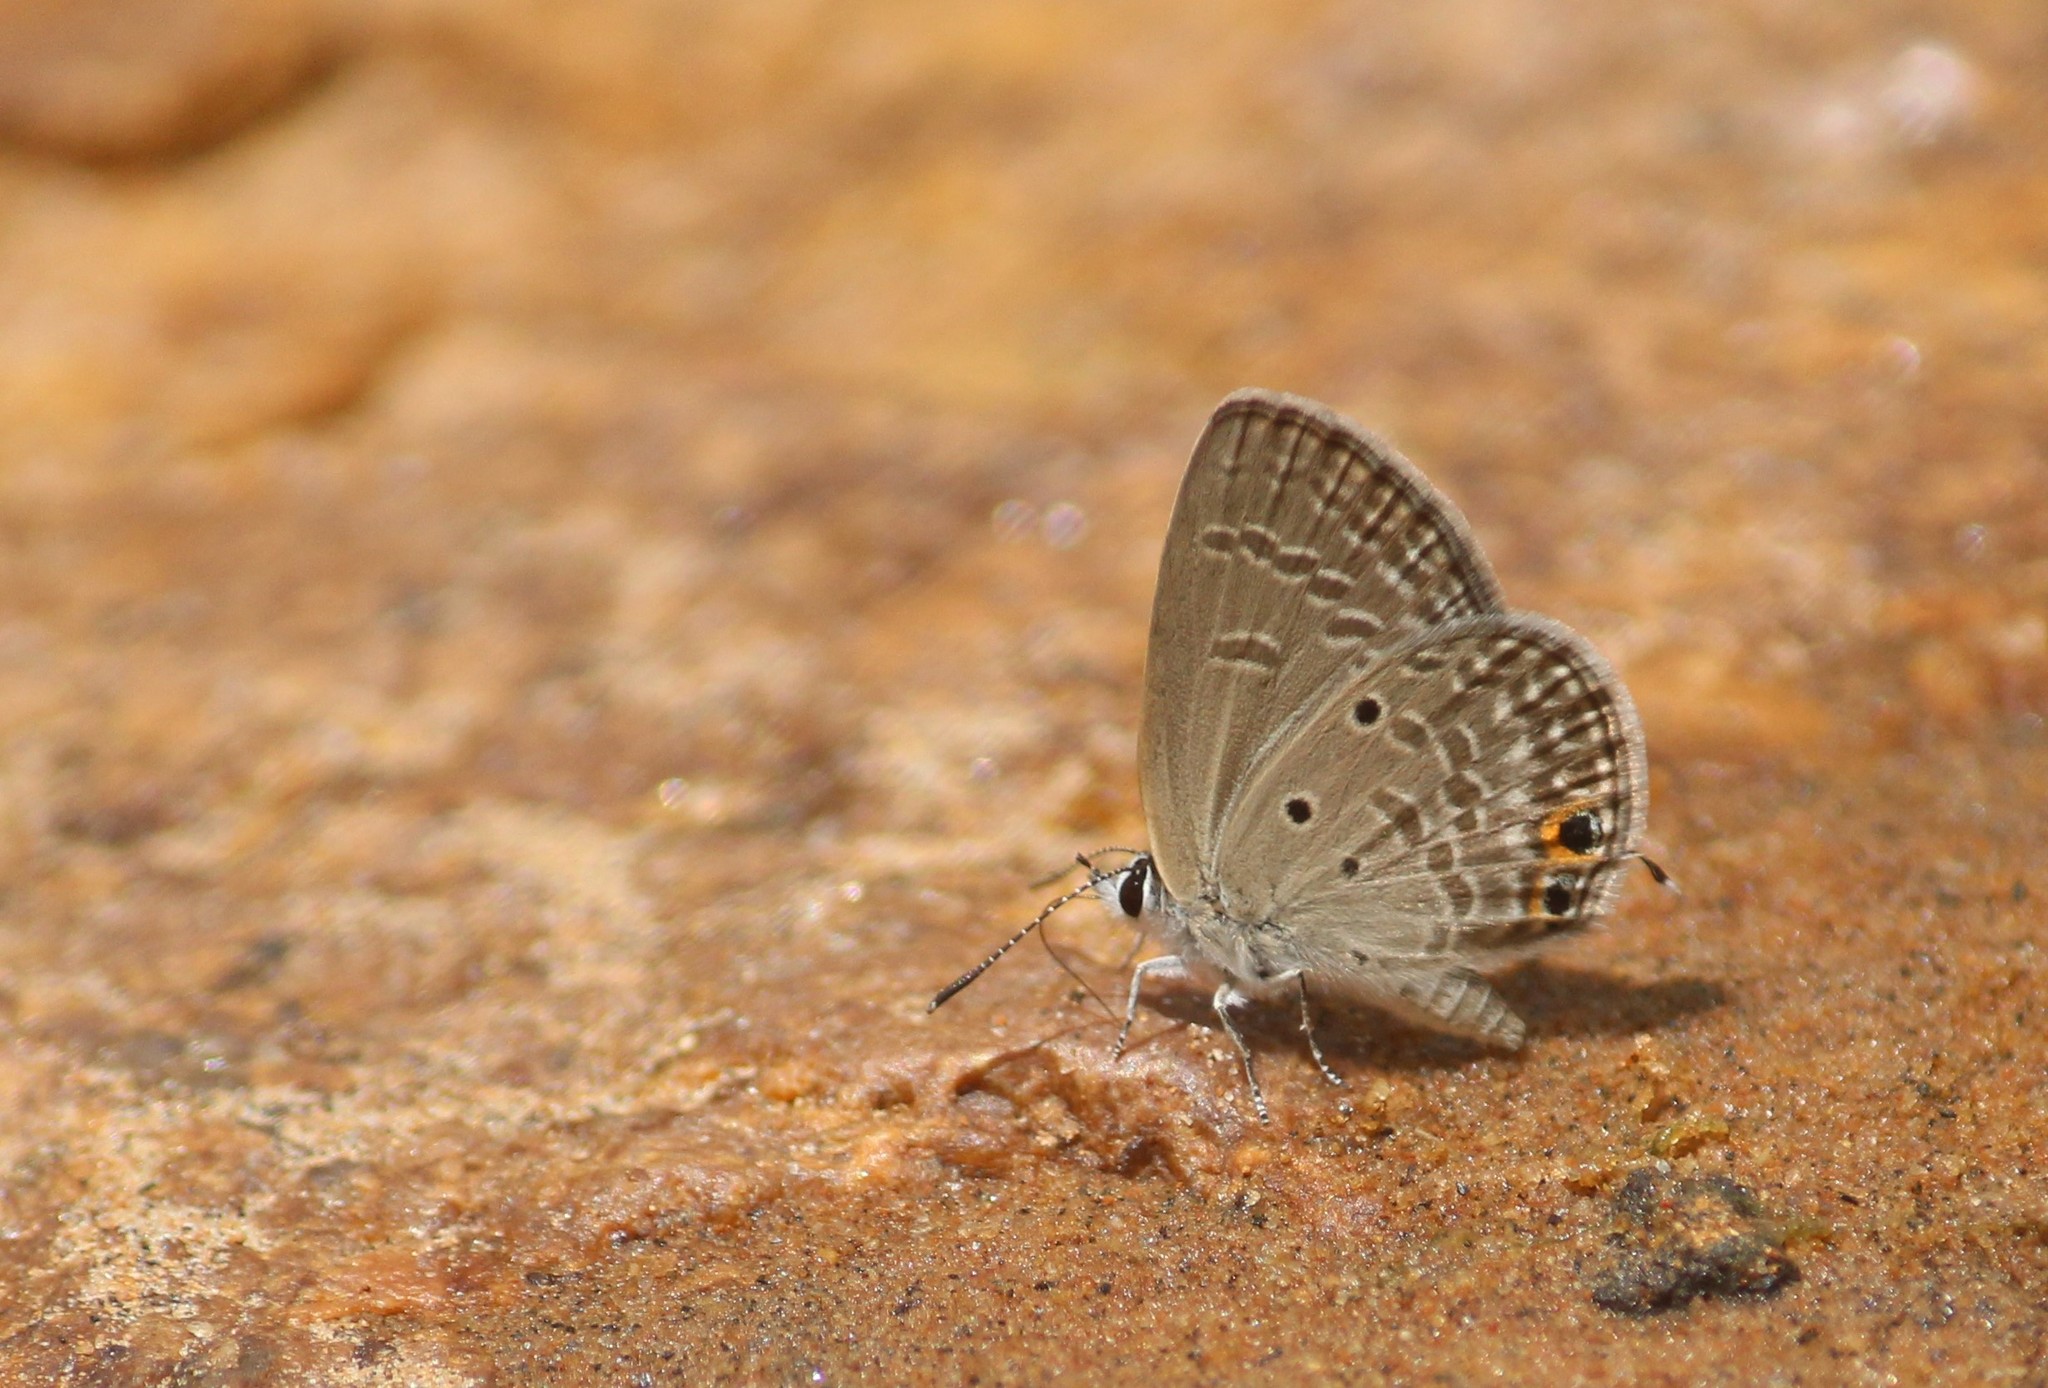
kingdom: Animalia
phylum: Arthropoda
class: Insecta
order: Lepidoptera
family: Lycaenidae
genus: Chilades
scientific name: Chilades parrhasius
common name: Small cupid
